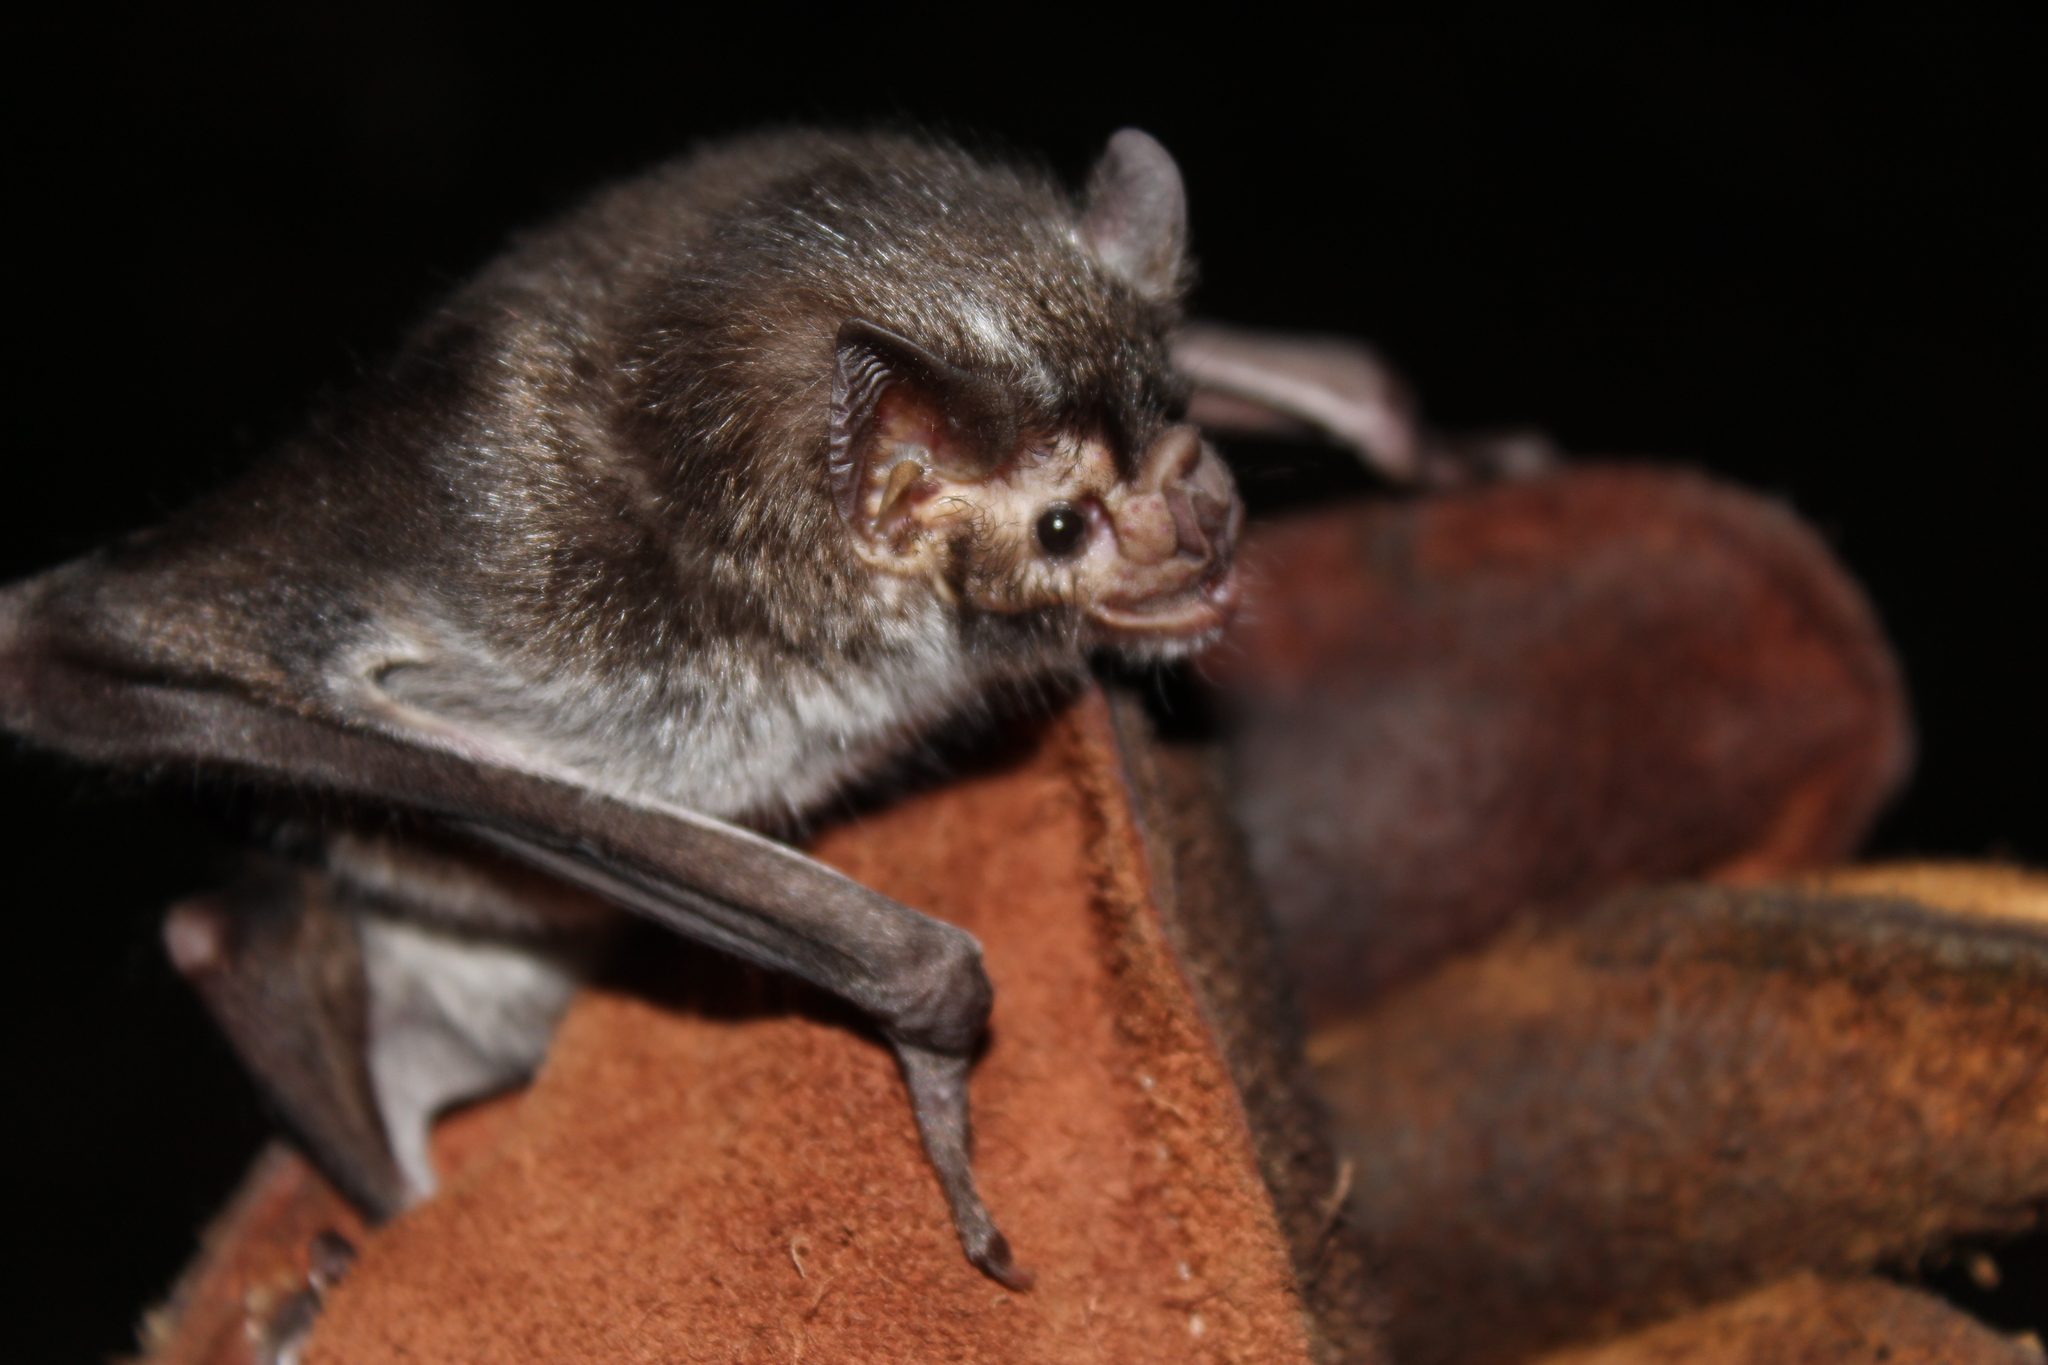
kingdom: Animalia
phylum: Chordata
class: Mammalia
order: Chiroptera
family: Phyllostomidae
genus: Desmodus
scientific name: Desmodus rotundus
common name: Common vampire bat
